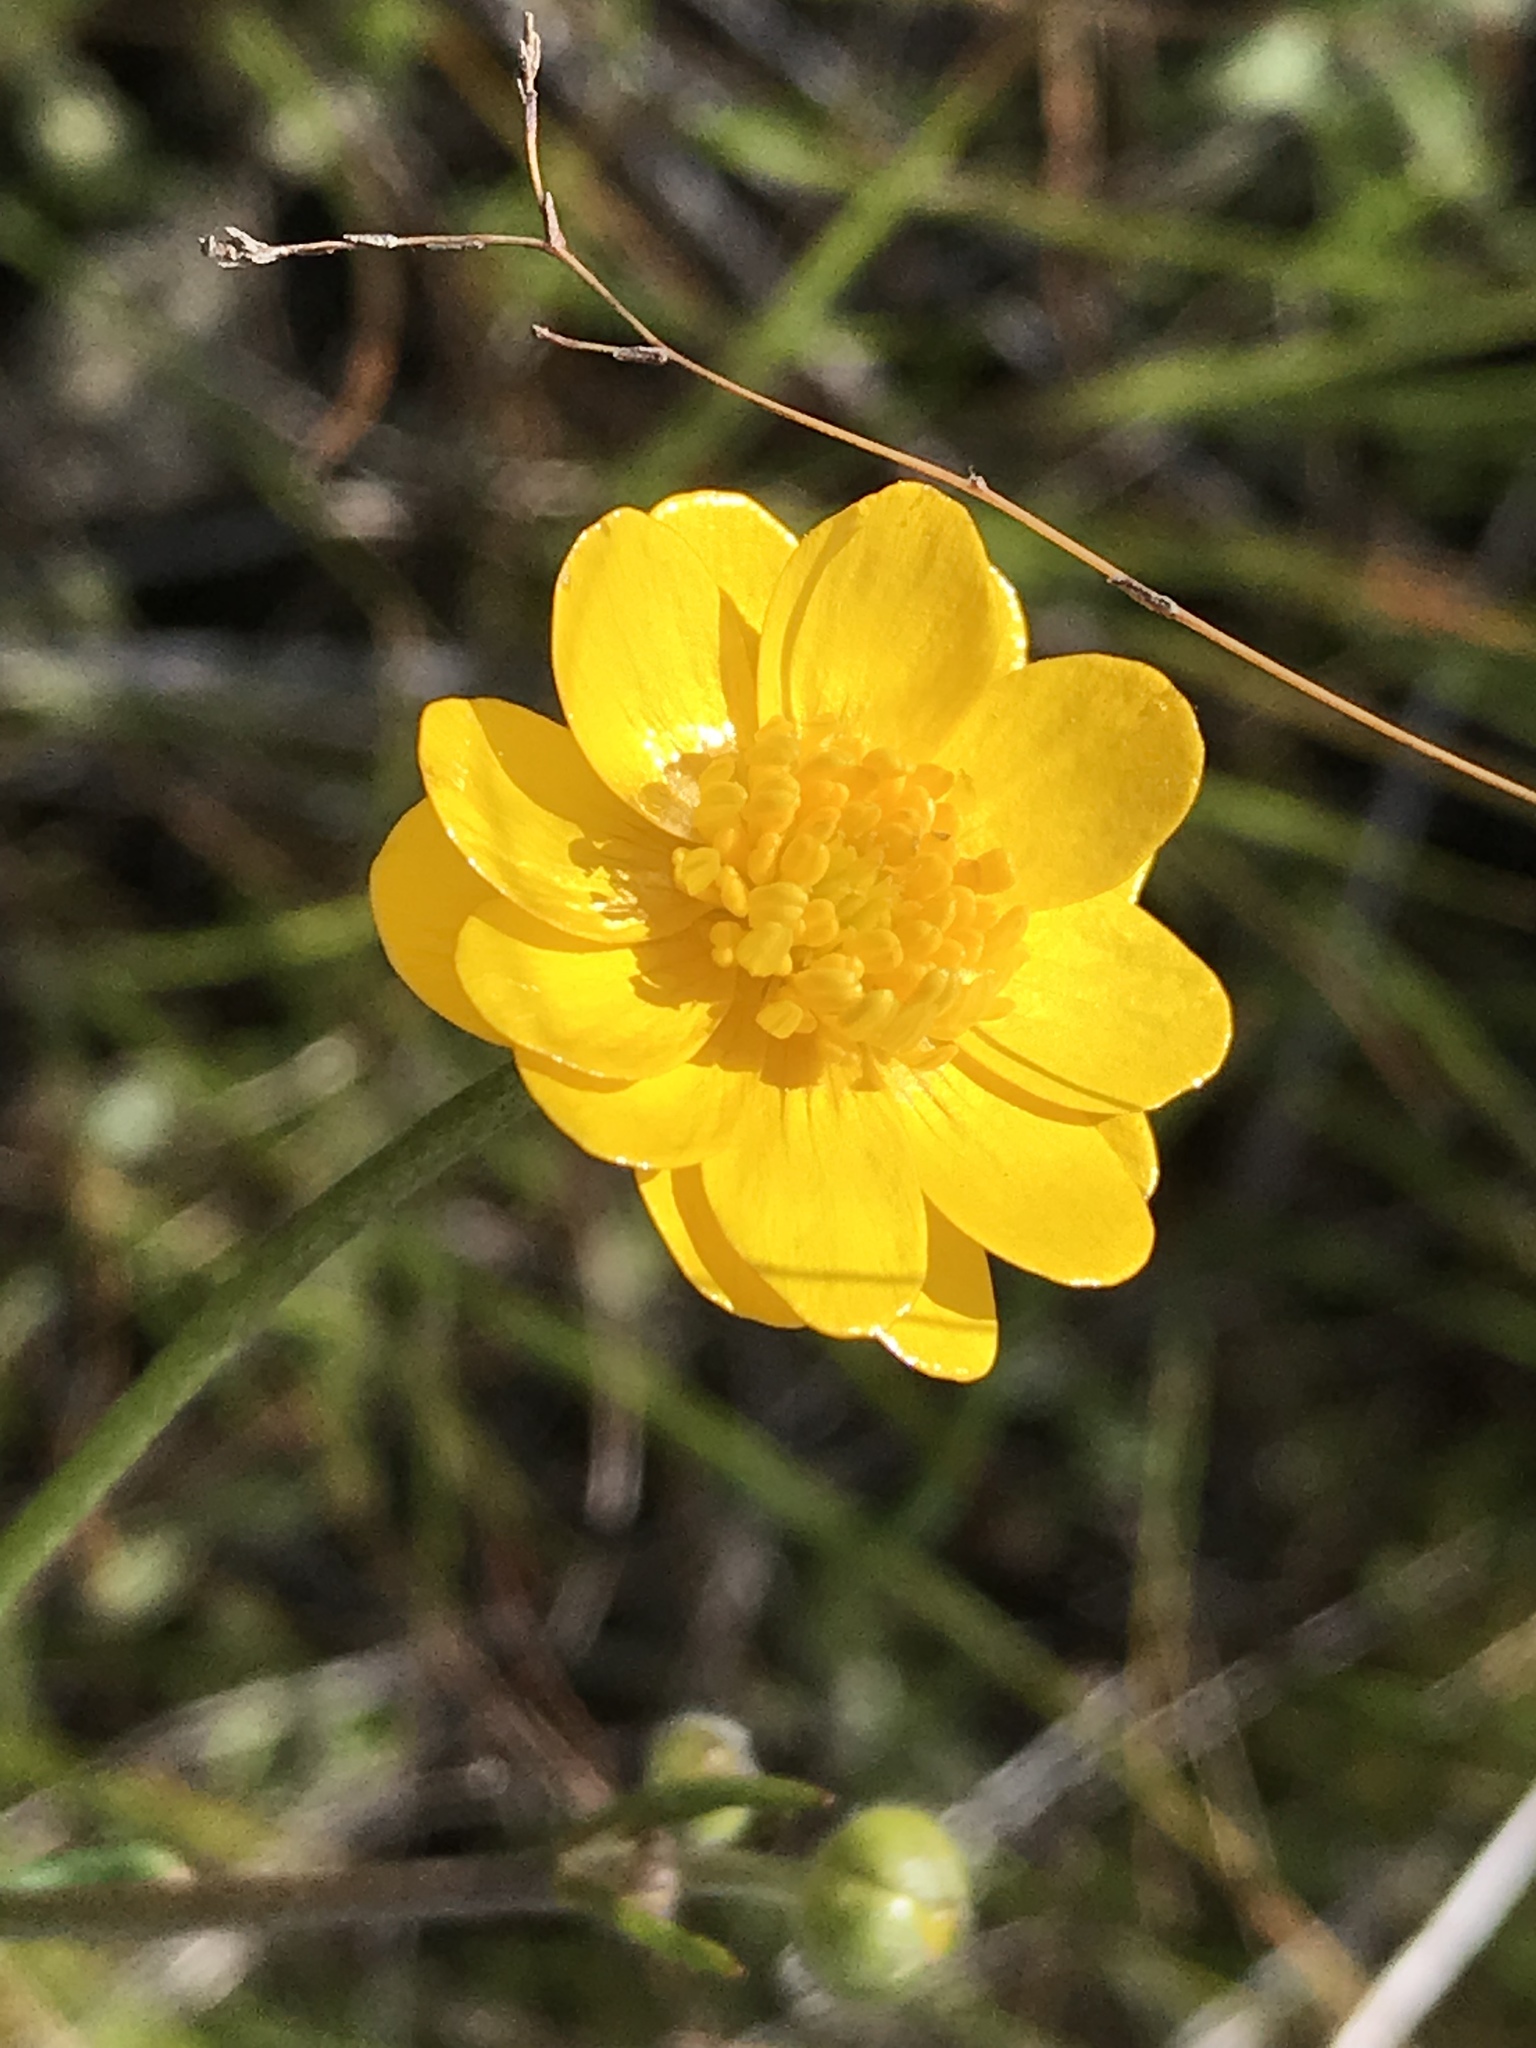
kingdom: Plantae
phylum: Tracheophyta
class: Magnoliopsida
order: Ranunculales
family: Ranunculaceae
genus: Ranunculus
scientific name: Ranunculus californicus
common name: California buttercup
